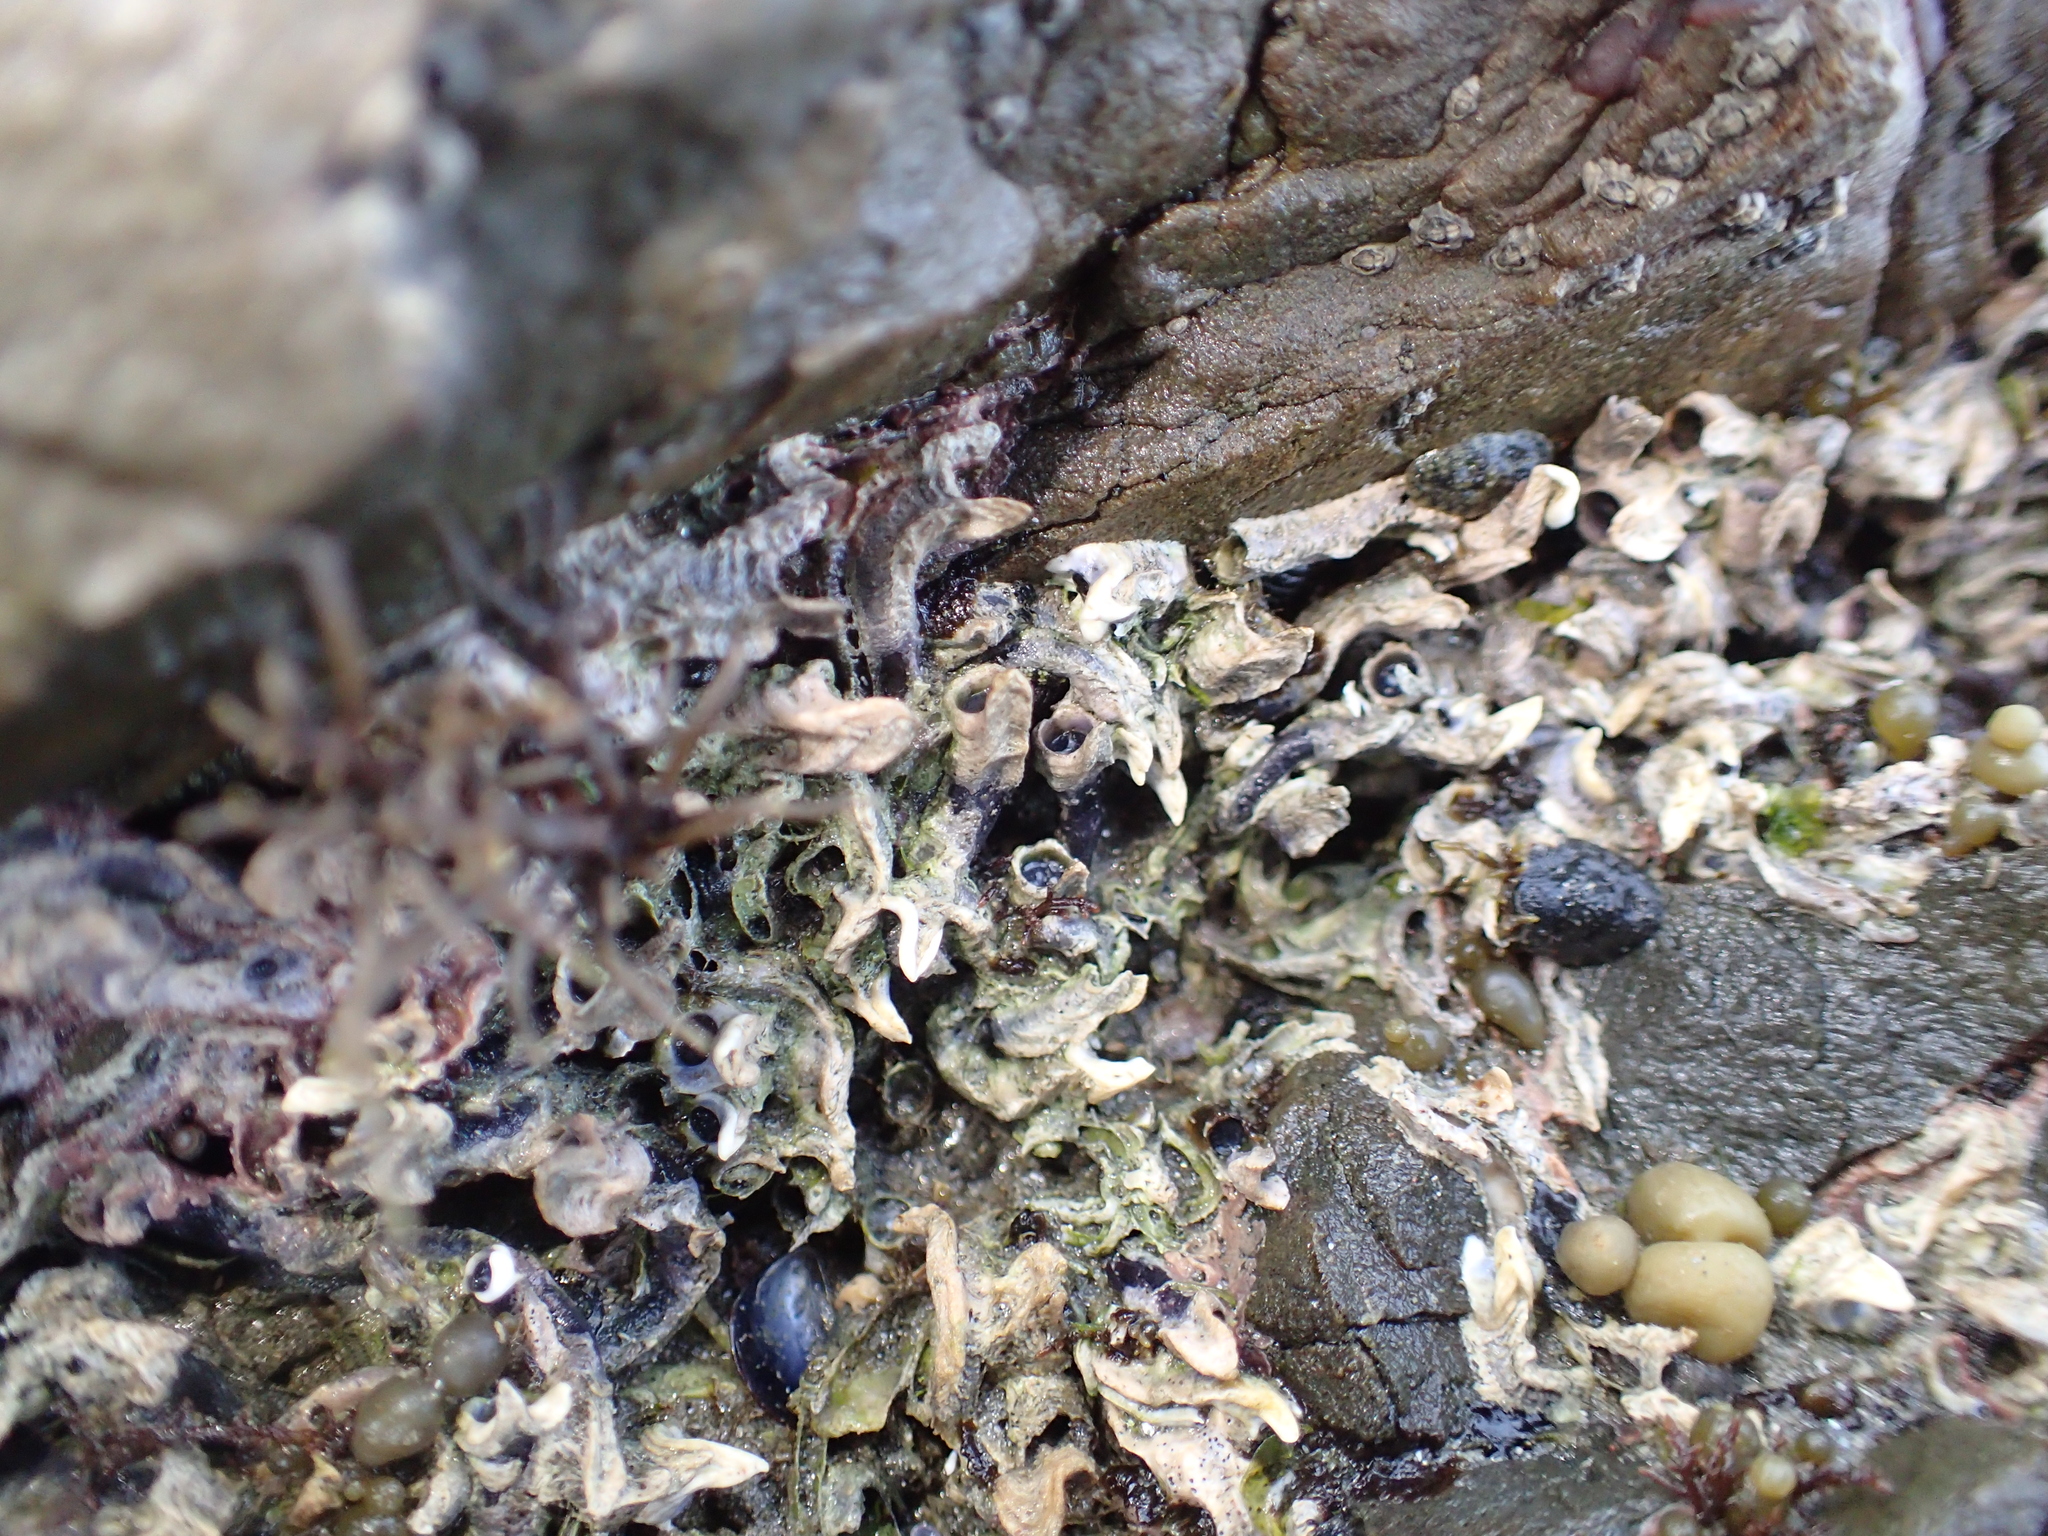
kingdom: Animalia
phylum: Annelida
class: Polychaeta
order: Sabellida
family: Serpulidae
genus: Spirobranchus
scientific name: Spirobranchus cariniferus
